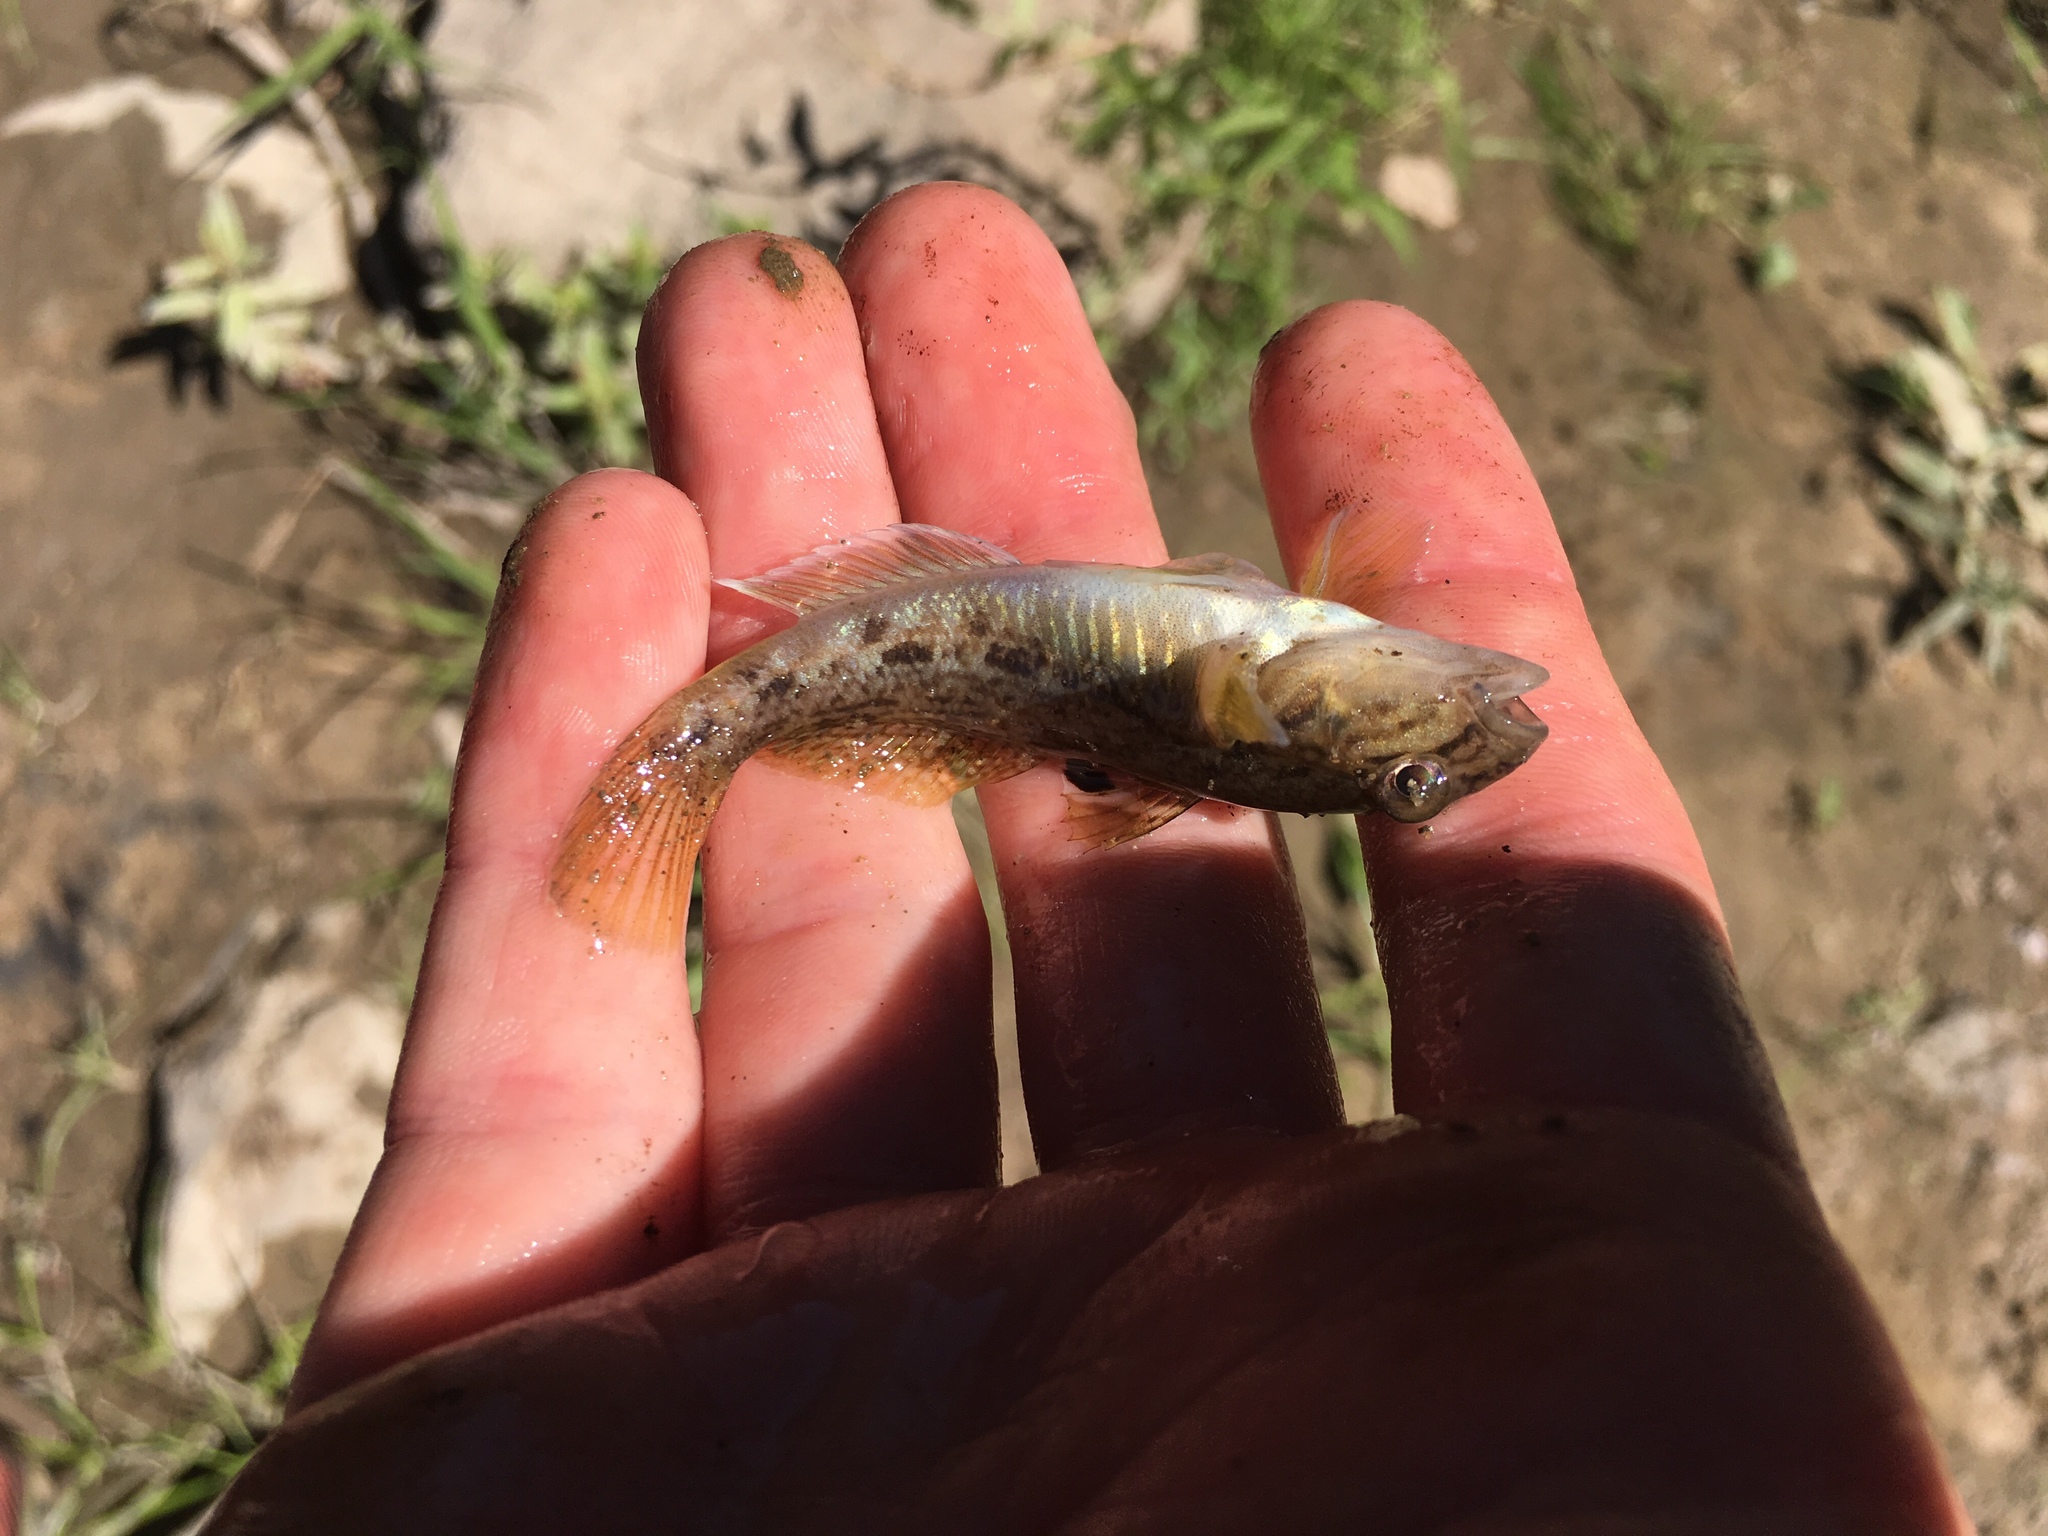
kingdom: Animalia
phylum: Chordata
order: Perciformes
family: Gobiidae
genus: Neogobius
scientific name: Neogobius melanostomus
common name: Round goby
